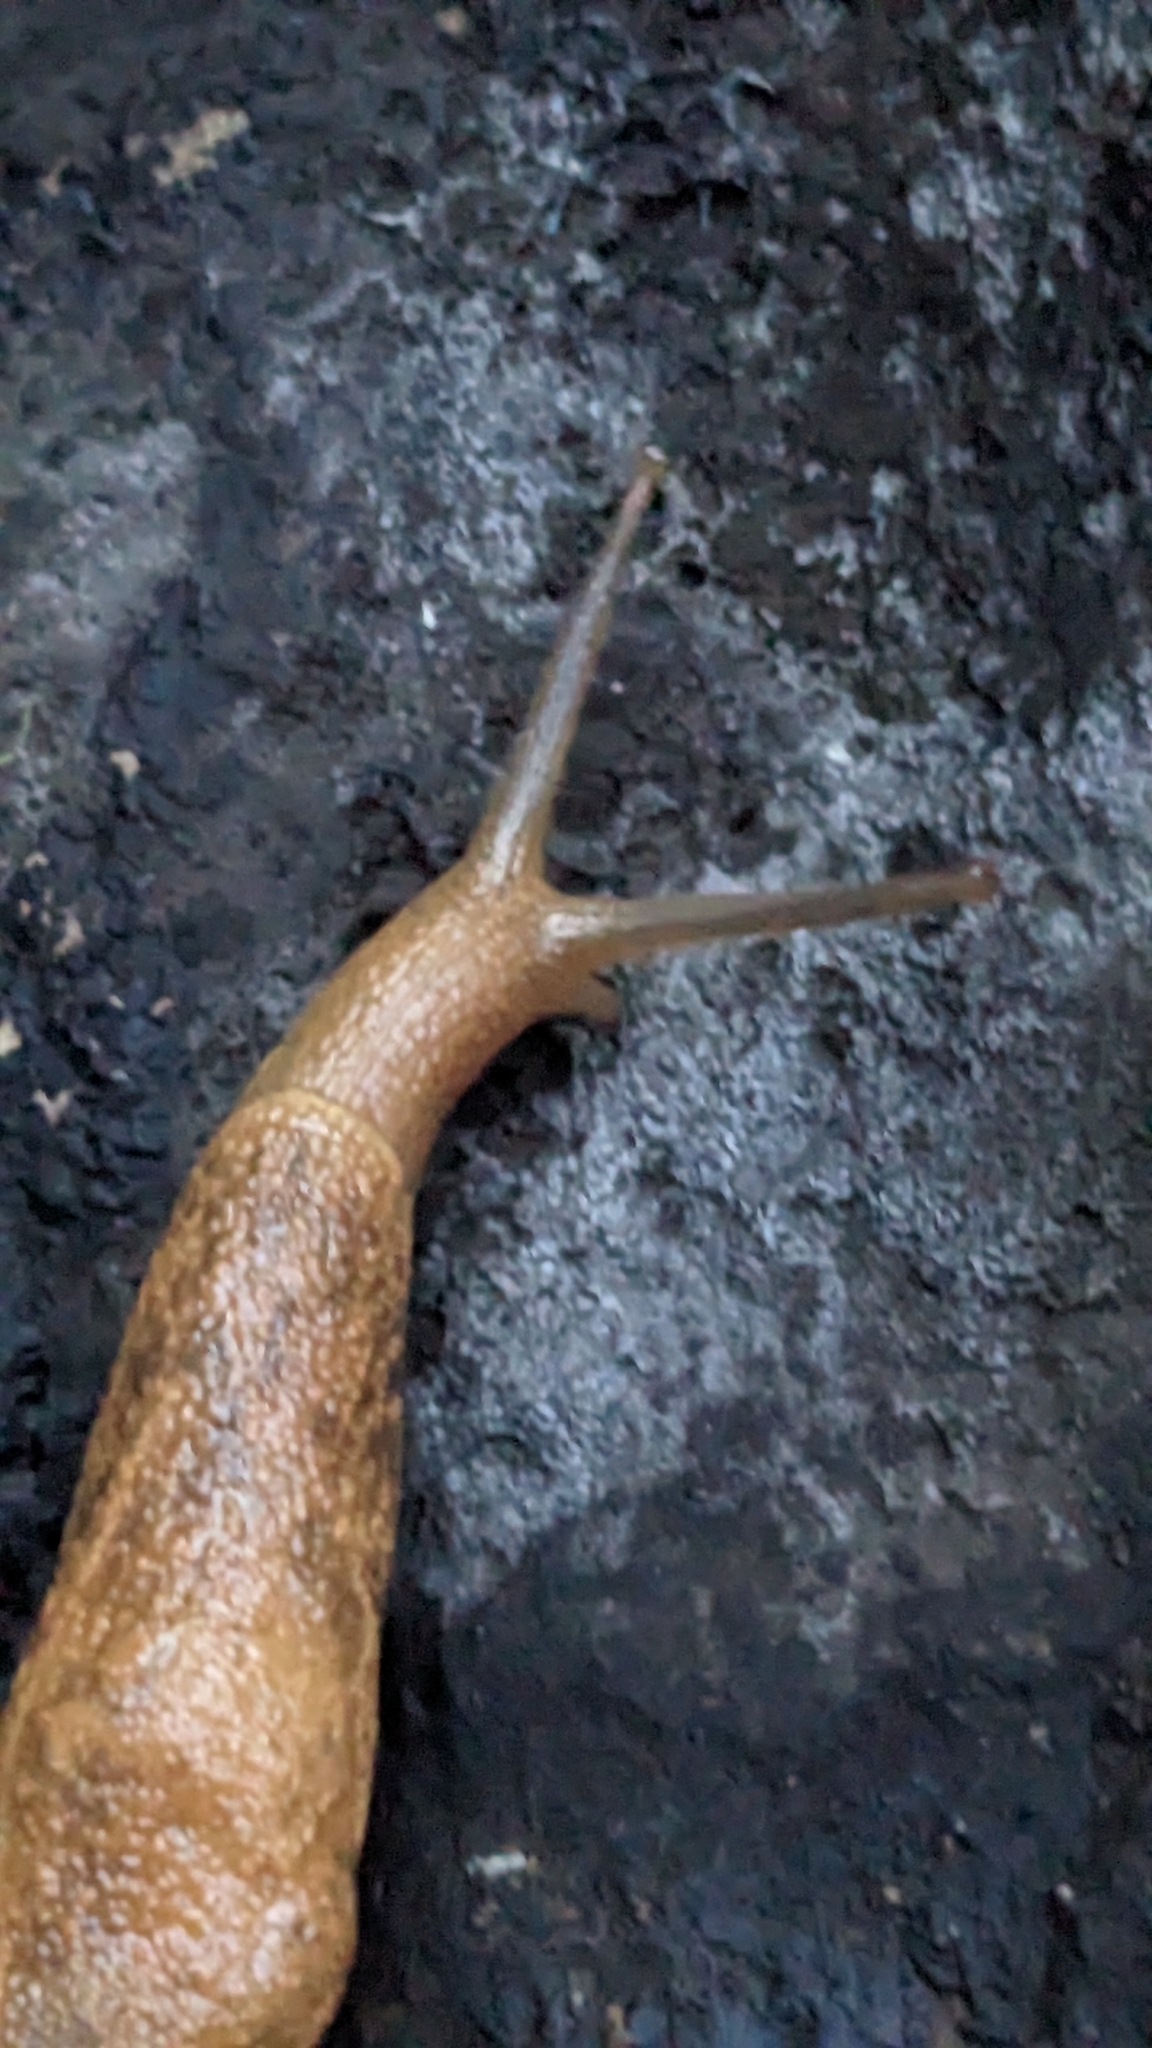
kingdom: Animalia
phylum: Mollusca
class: Gastropoda
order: Stylommatophora
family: Ariophantidae
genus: Mariaella
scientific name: Mariaella dussumieri
